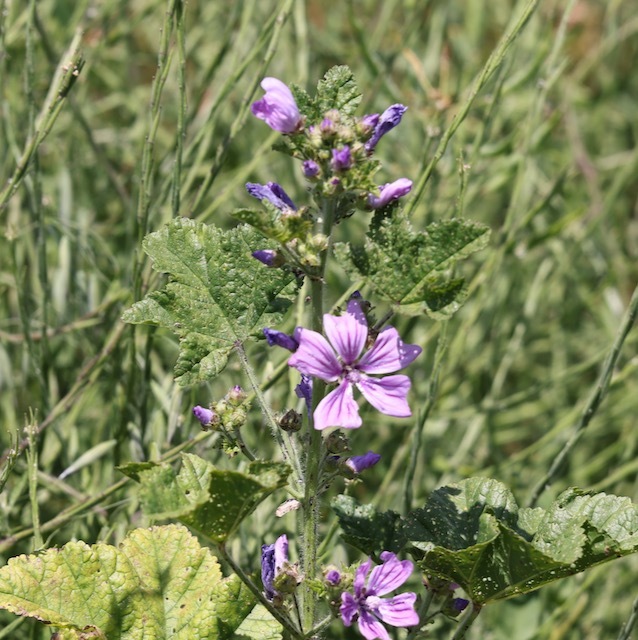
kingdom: Plantae
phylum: Tracheophyta
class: Magnoliopsida
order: Malvales
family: Malvaceae
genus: Malva
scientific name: Malva sylvestris
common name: Common mallow
